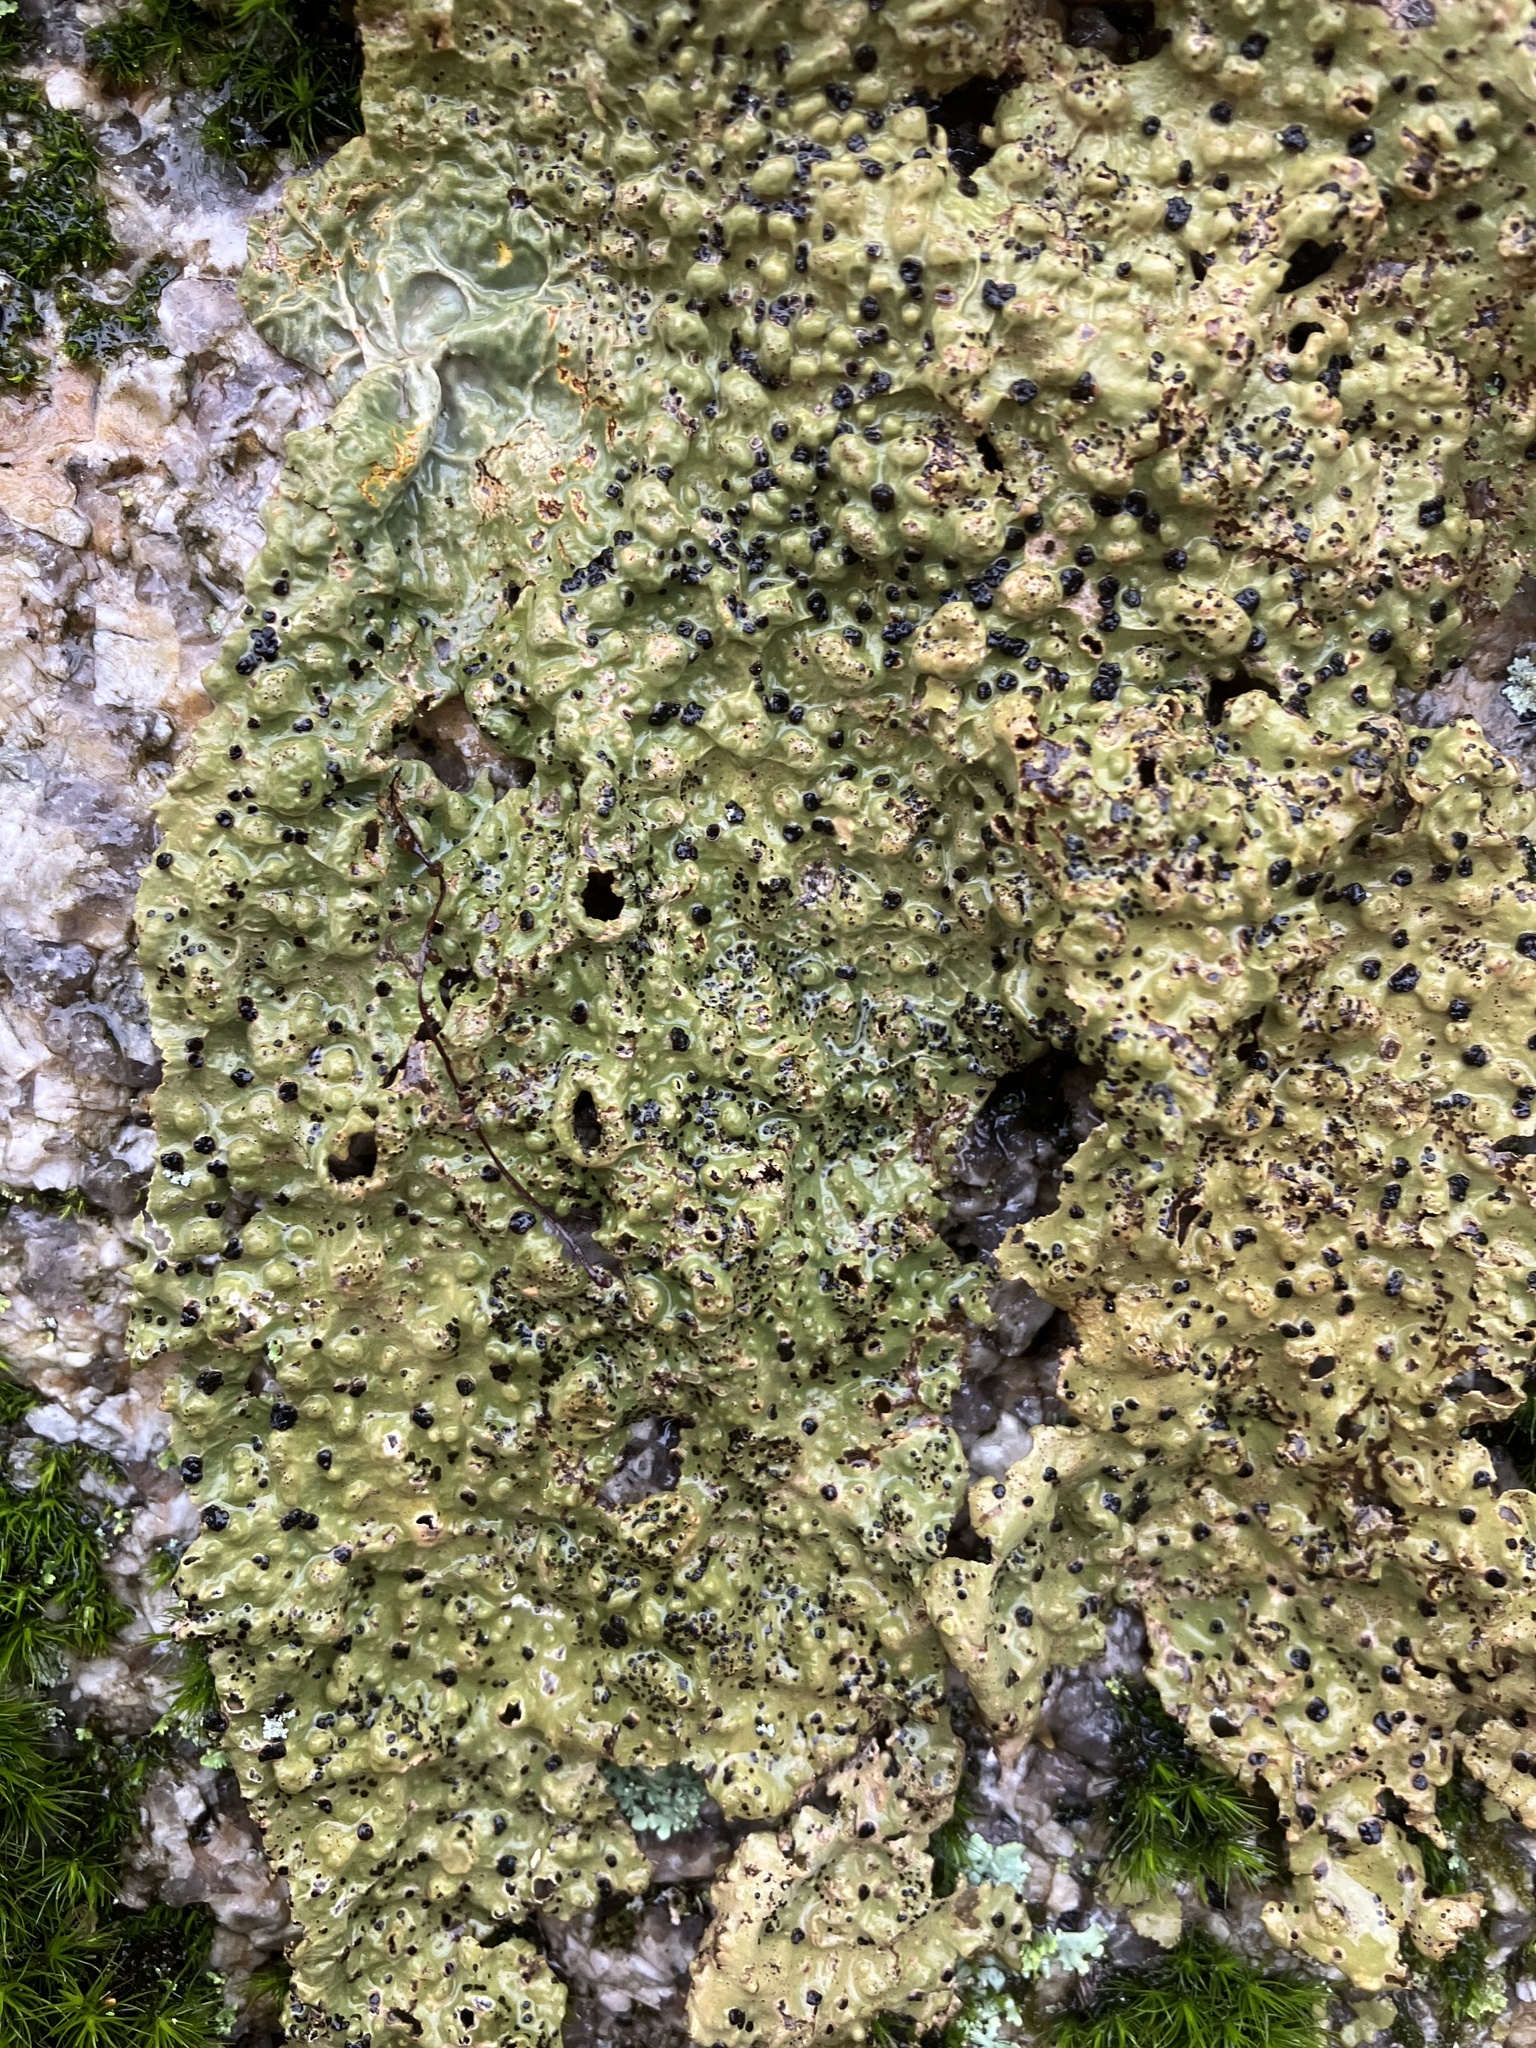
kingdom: Fungi
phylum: Ascomycota
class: Lecanoromycetes
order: Umbilicariales
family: Umbilicariaceae
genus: Lasallia
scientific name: Lasallia papulosa
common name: Common toadskin lichen
